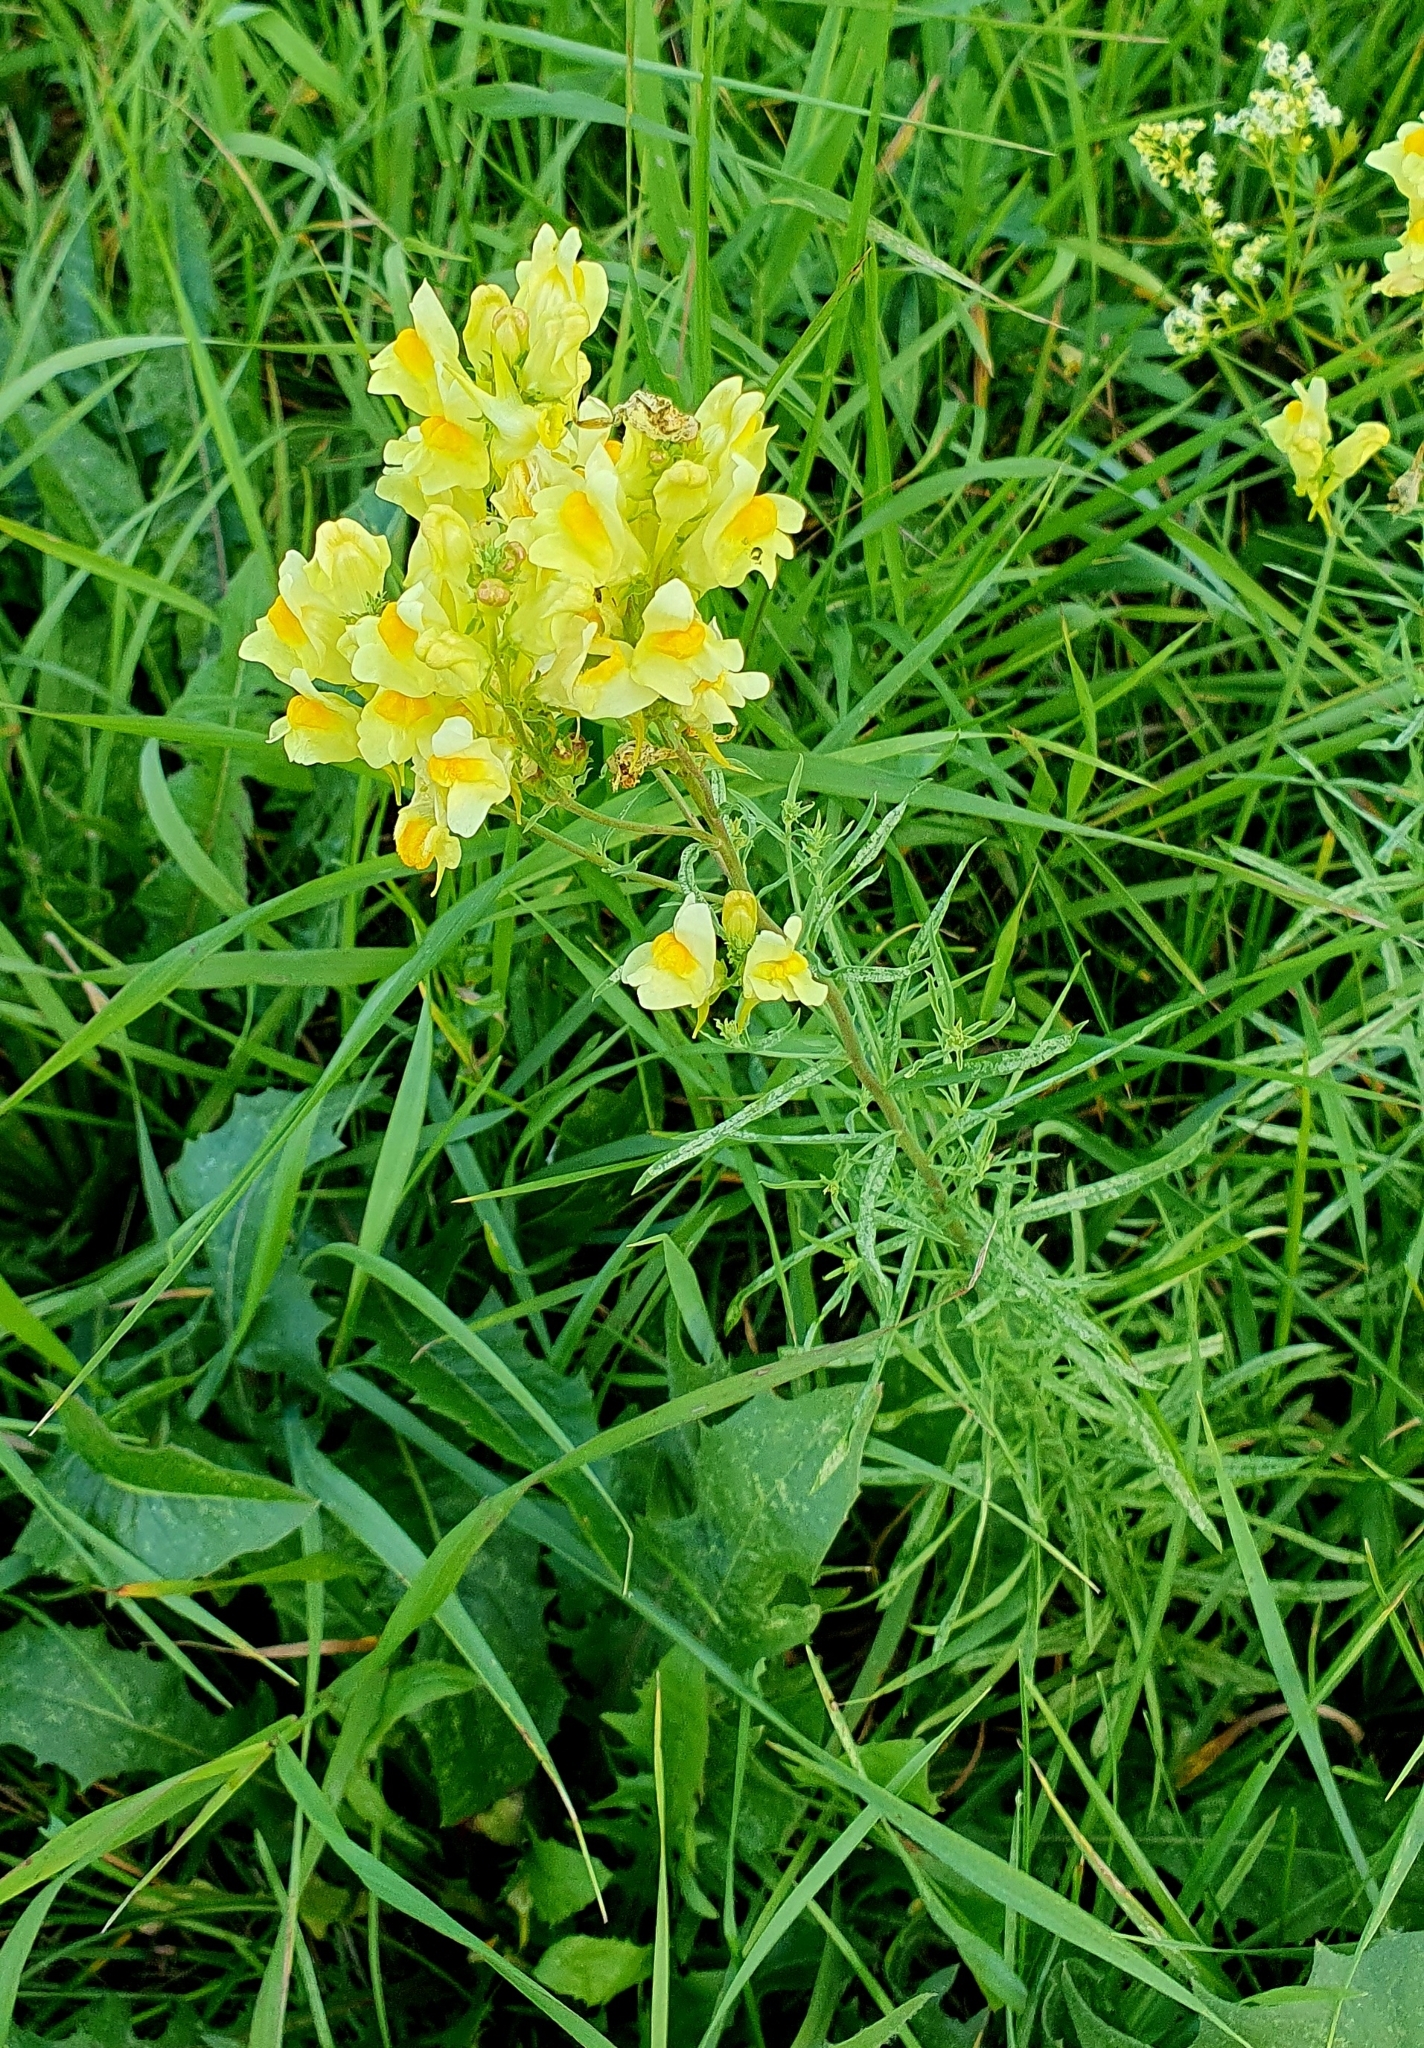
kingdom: Plantae
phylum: Tracheophyta
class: Magnoliopsida
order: Lamiales
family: Plantaginaceae
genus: Linaria
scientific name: Linaria vulgaris
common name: Butter and eggs
